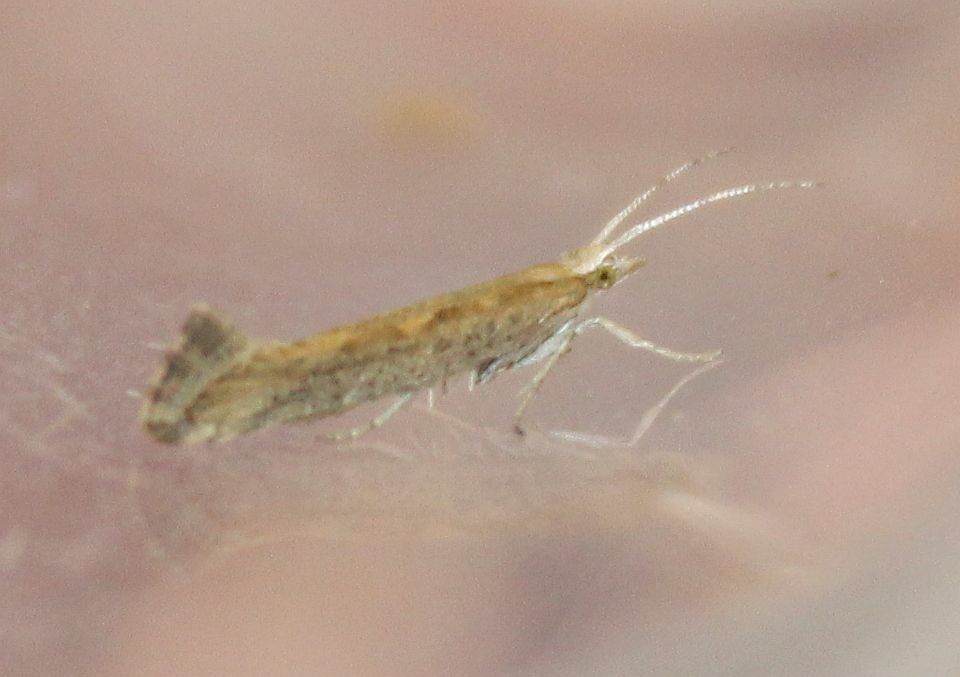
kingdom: Animalia
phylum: Arthropoda
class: Insecta
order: Lepidoptera
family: Plutellidae
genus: Plutella
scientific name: Plutella xylostella
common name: Diamond-back moth
